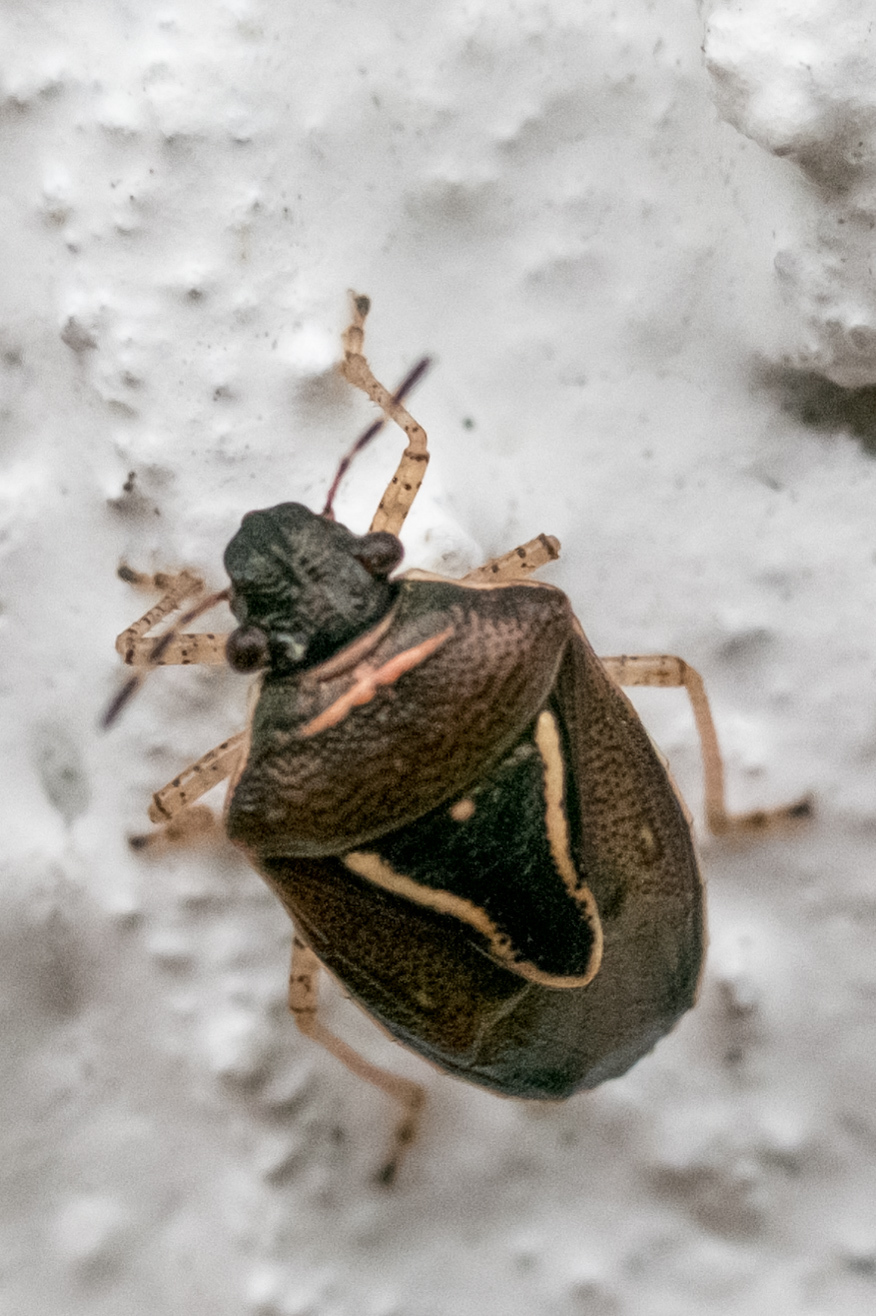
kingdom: Animalia
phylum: Arthropoda
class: Insecta
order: Hemiptera
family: Pentatomidae
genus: Mormidea
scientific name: Mormidea lugens
